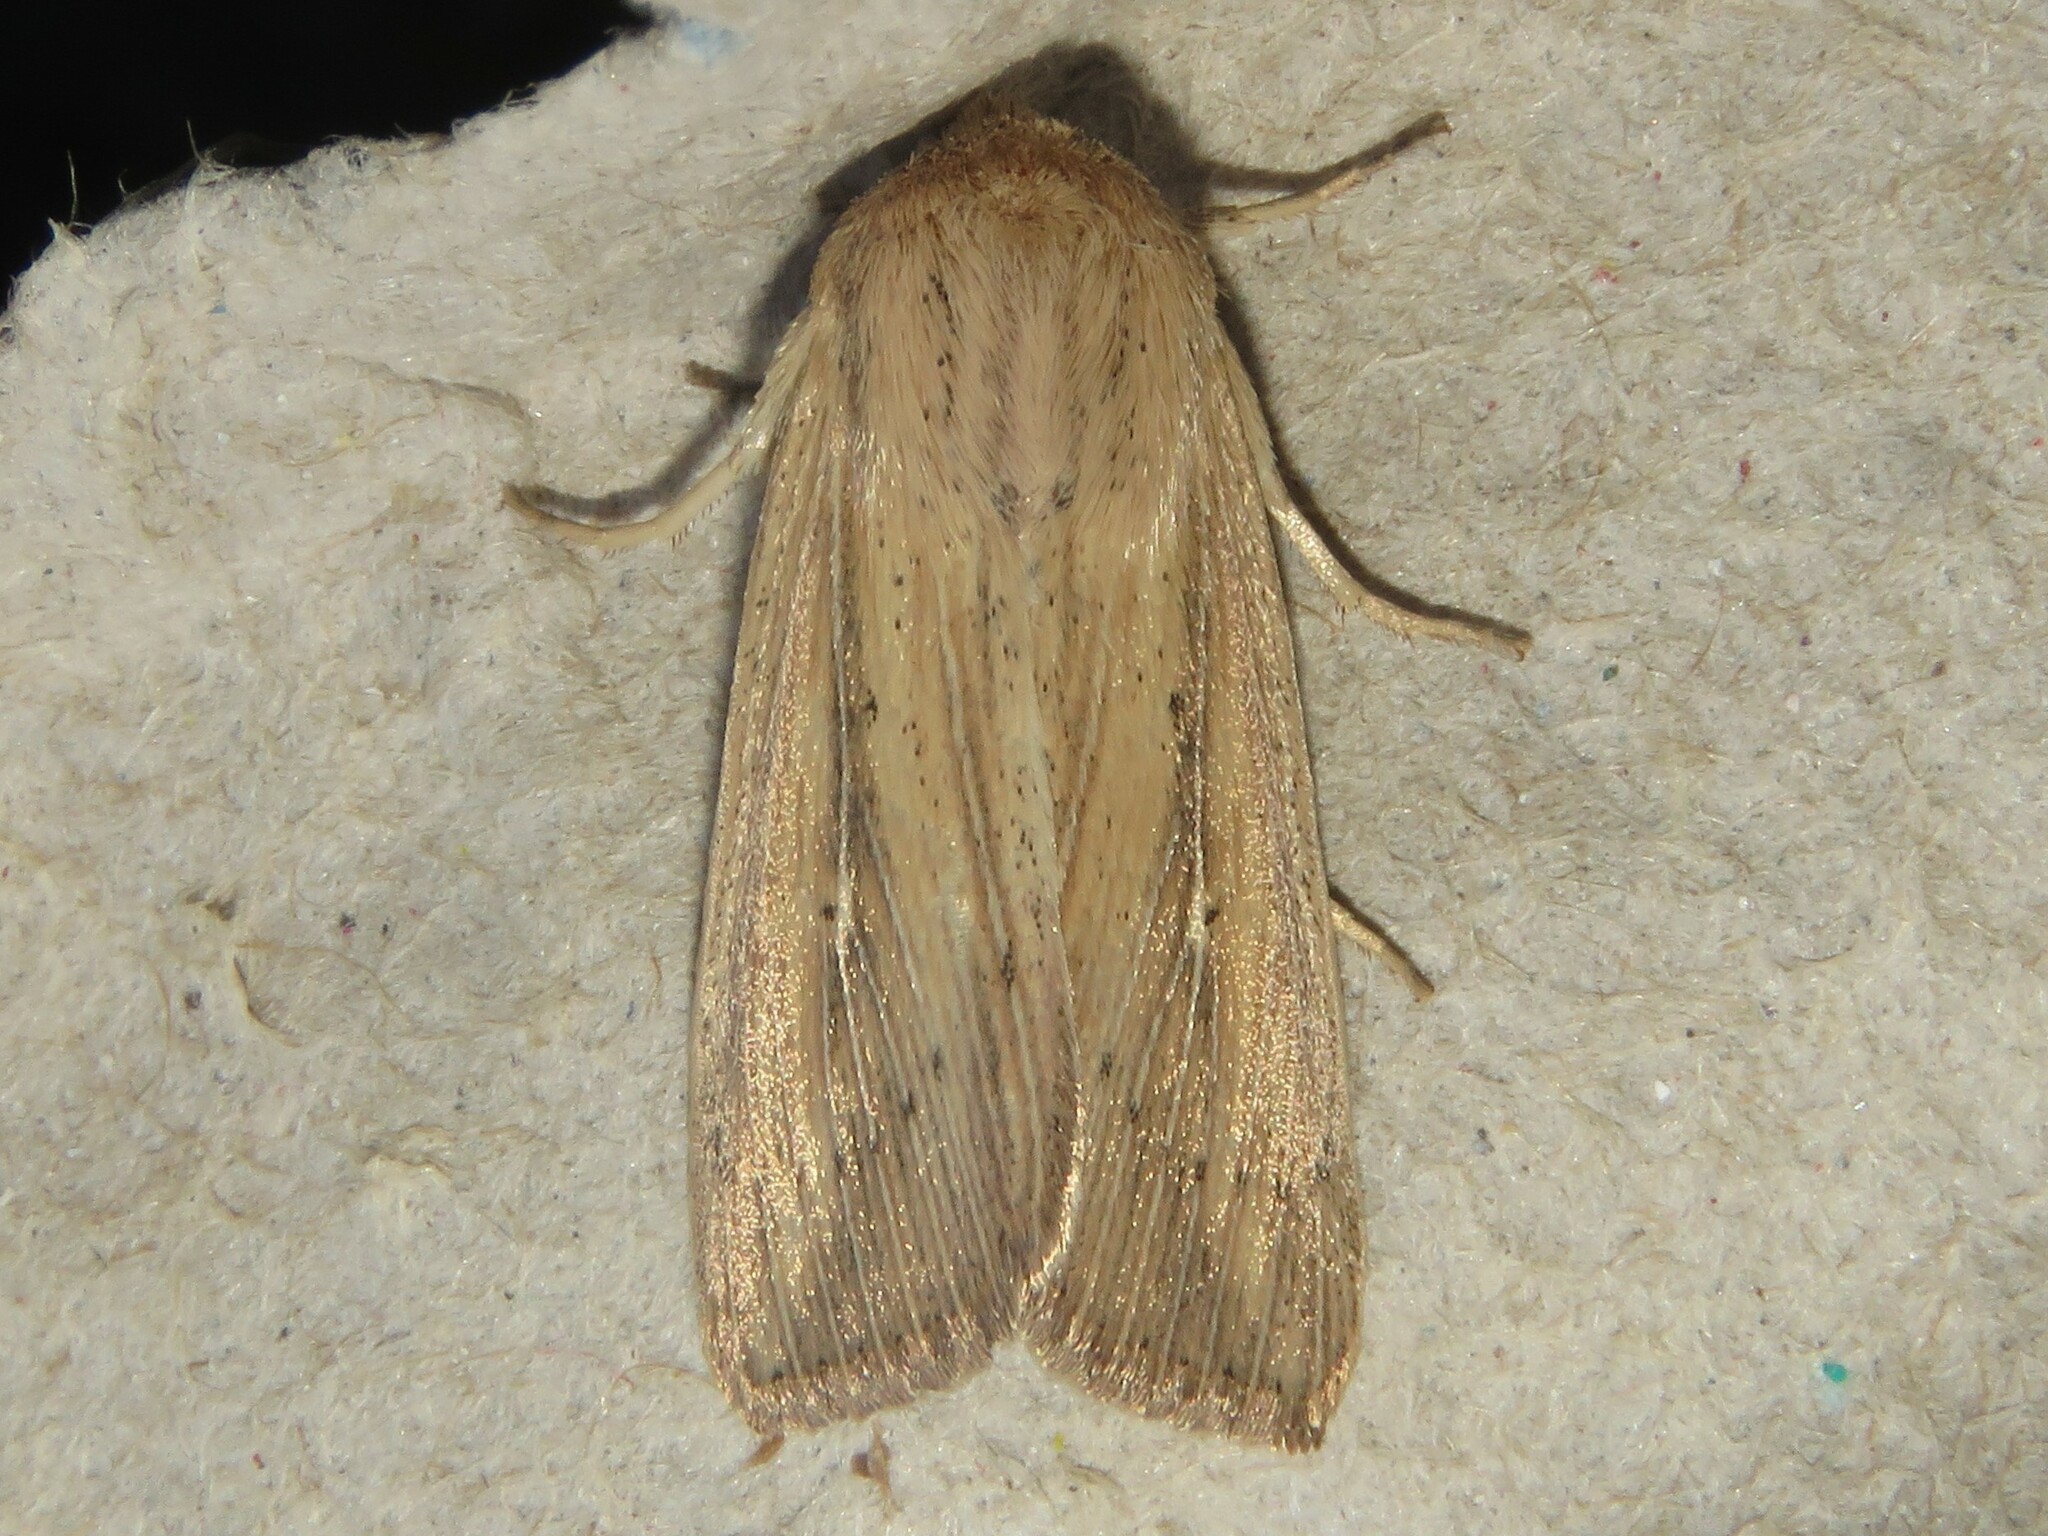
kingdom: Animalia
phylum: Arthropoda
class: Insecta
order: Lepidoptera
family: Noctuidae
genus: Leucania
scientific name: Leucania linda
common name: Linda's wainscot
